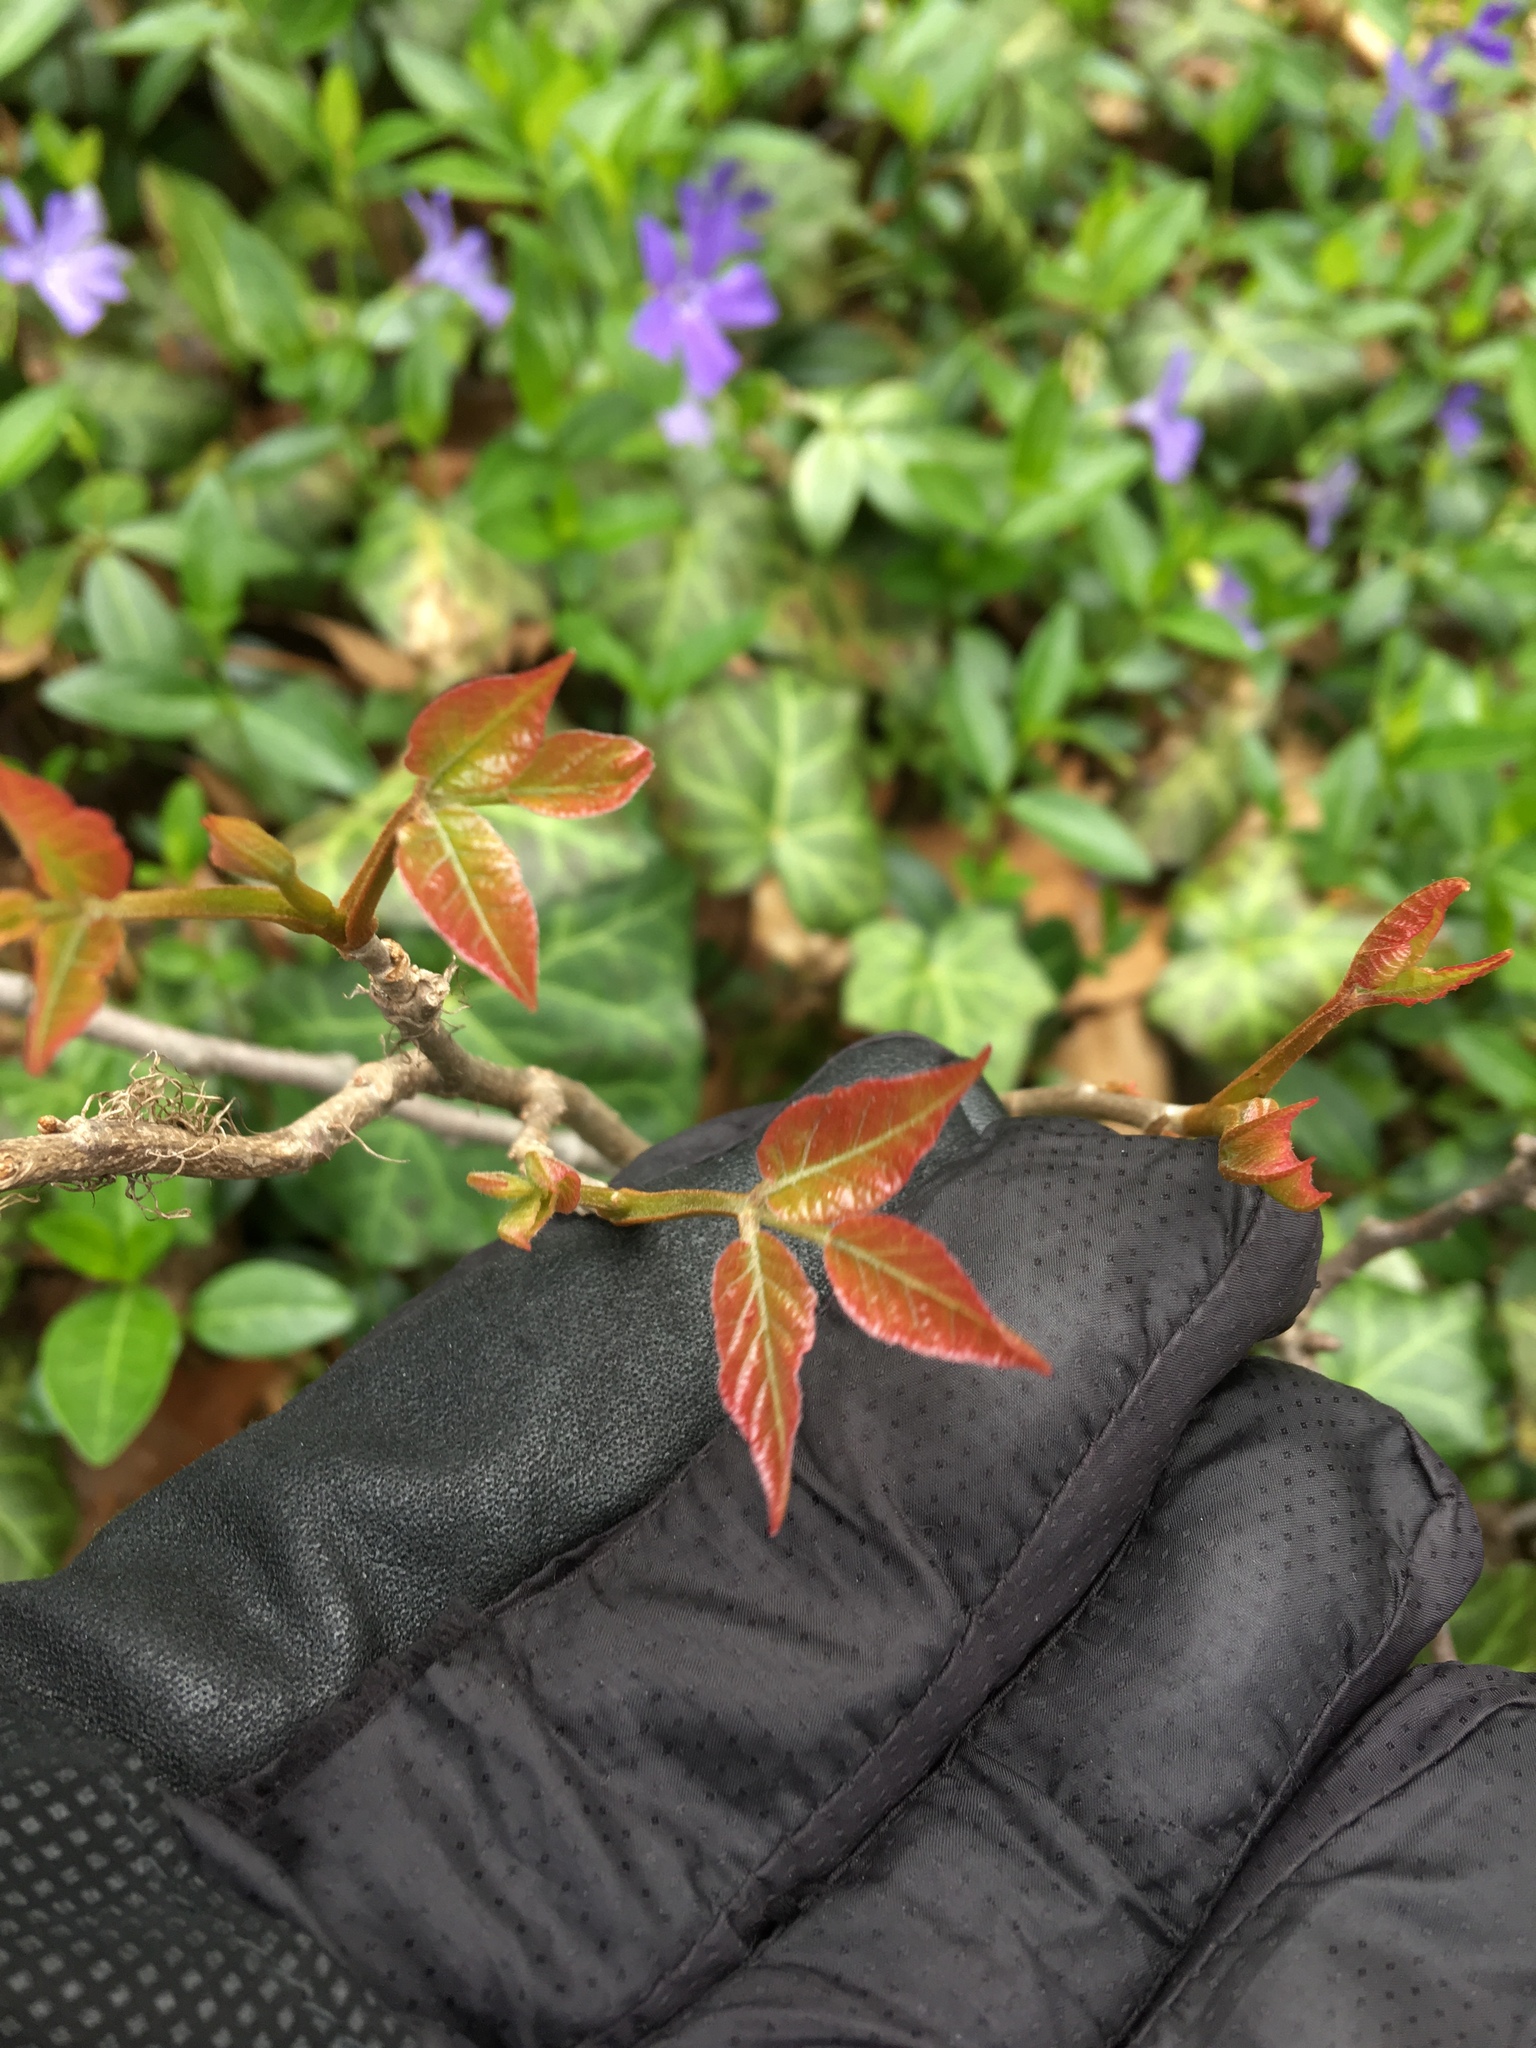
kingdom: Plantae
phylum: Tracheophyta
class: Magnoliopsida
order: Sapindales
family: Anacardiaceae
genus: Toxicodendron
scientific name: Toxicodendron radicans
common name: Poison ivy
